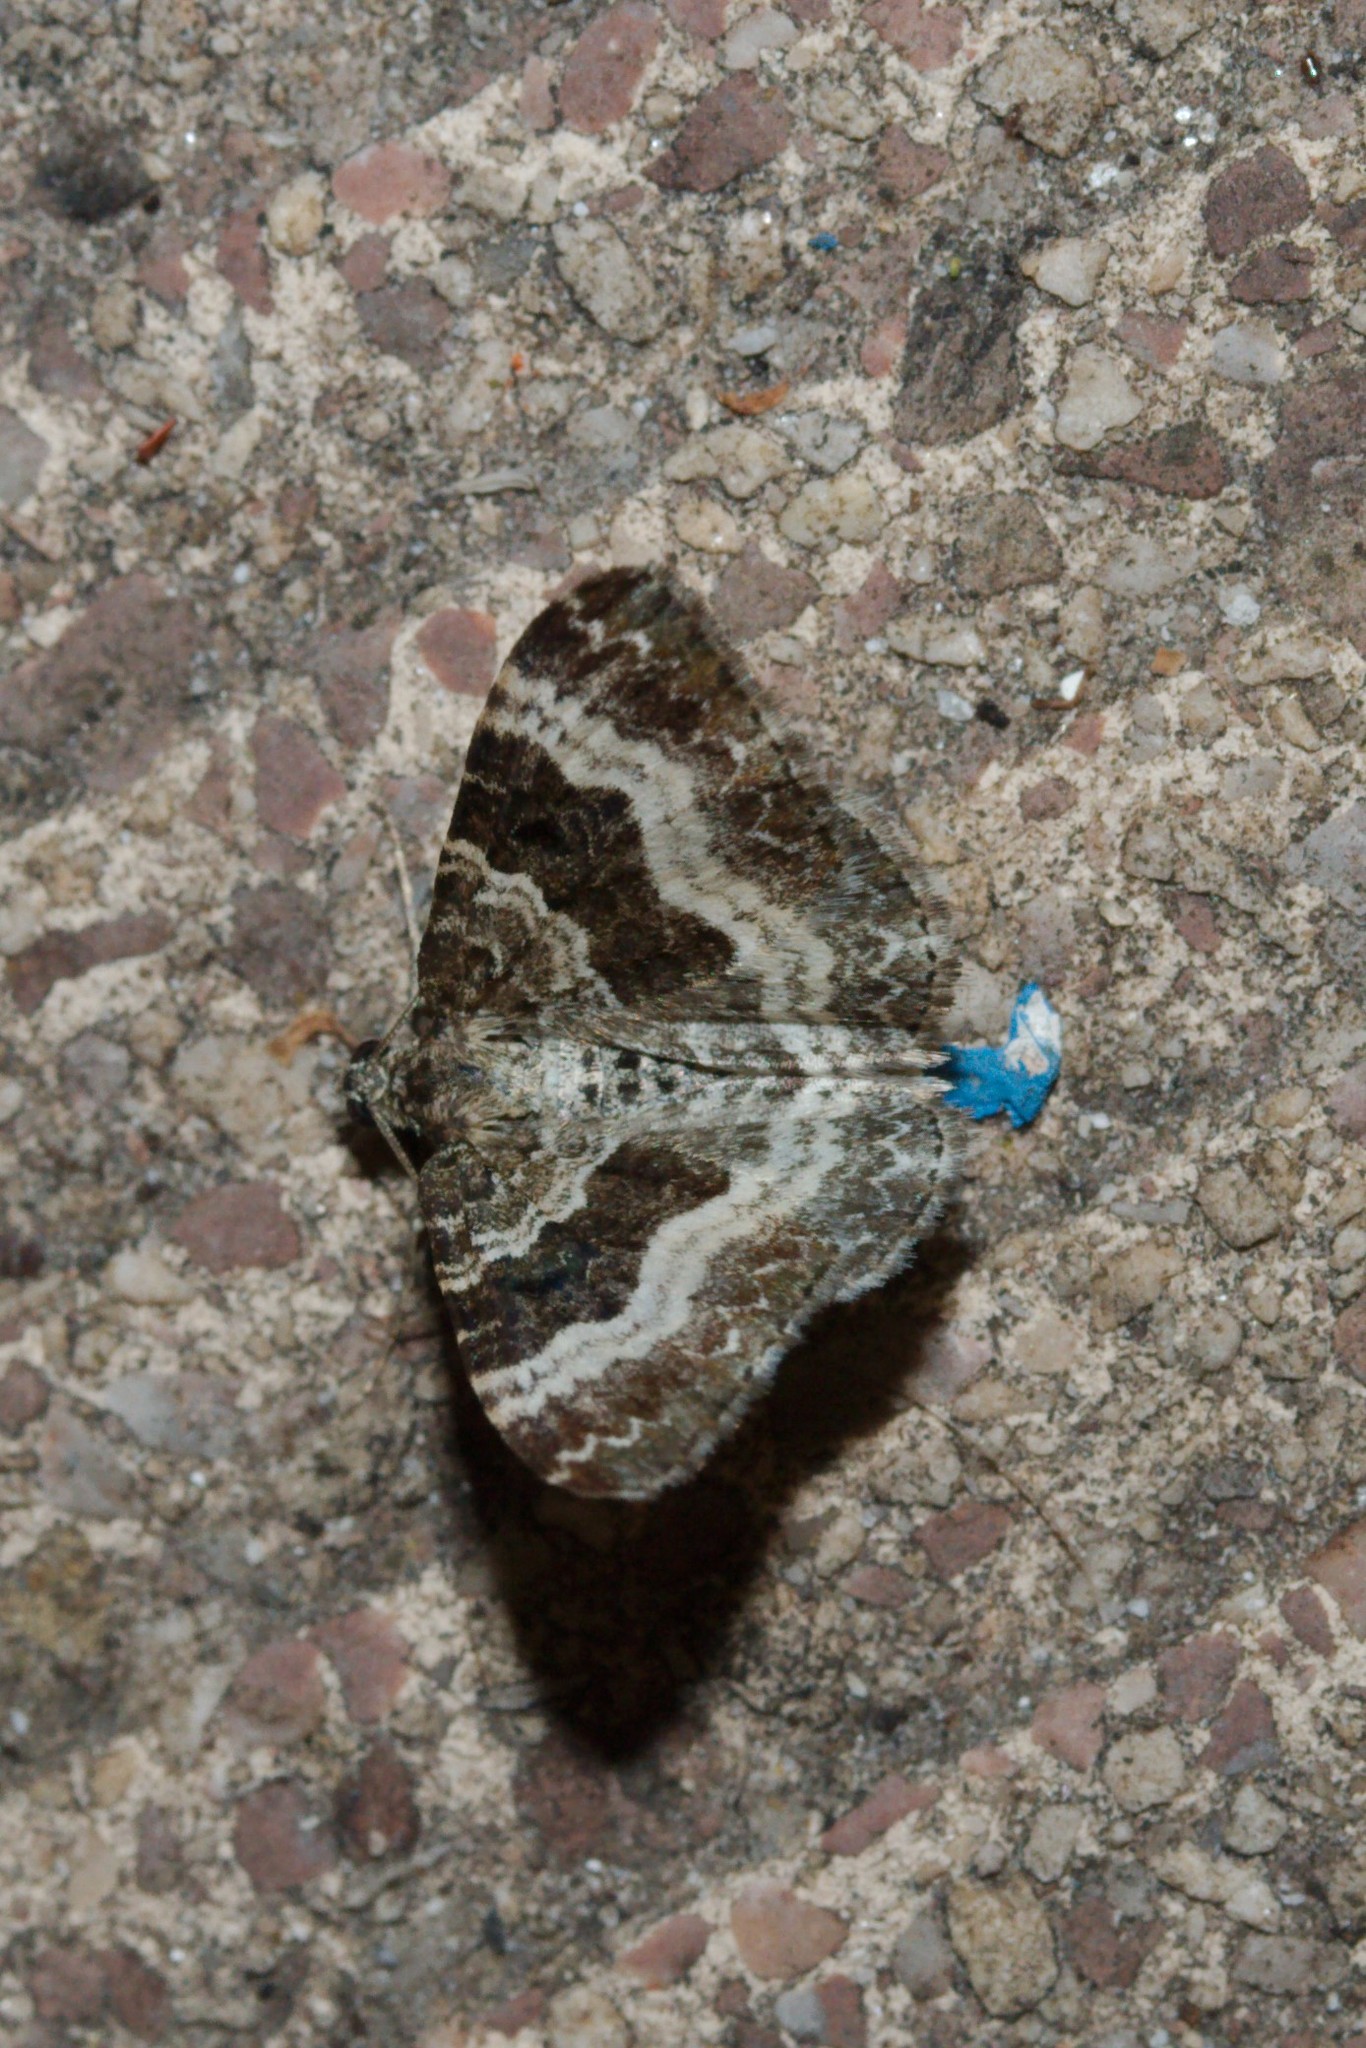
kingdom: Animalia
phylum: Arthropoda
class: Insecta
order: Lepidoptera
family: Geometridae
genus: Epirrhoe
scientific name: Epirrhoe alternata
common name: Common carpet
